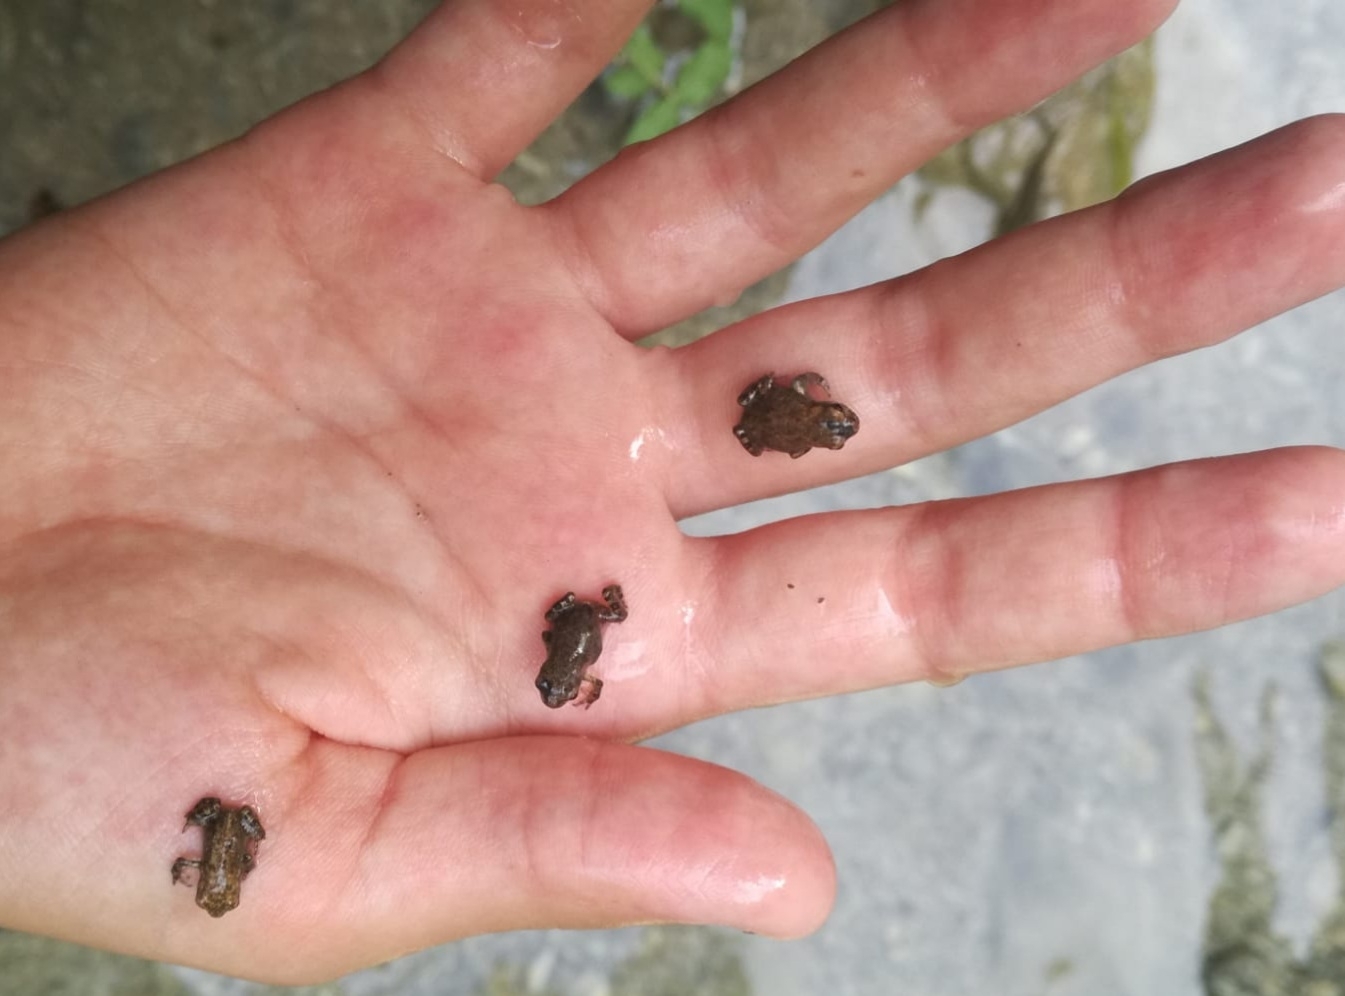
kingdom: Animalia
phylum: Chordata
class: Amphibia
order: Anura
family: Bufonidae
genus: Bufo
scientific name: Bufo spinosus
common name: Western common toad
